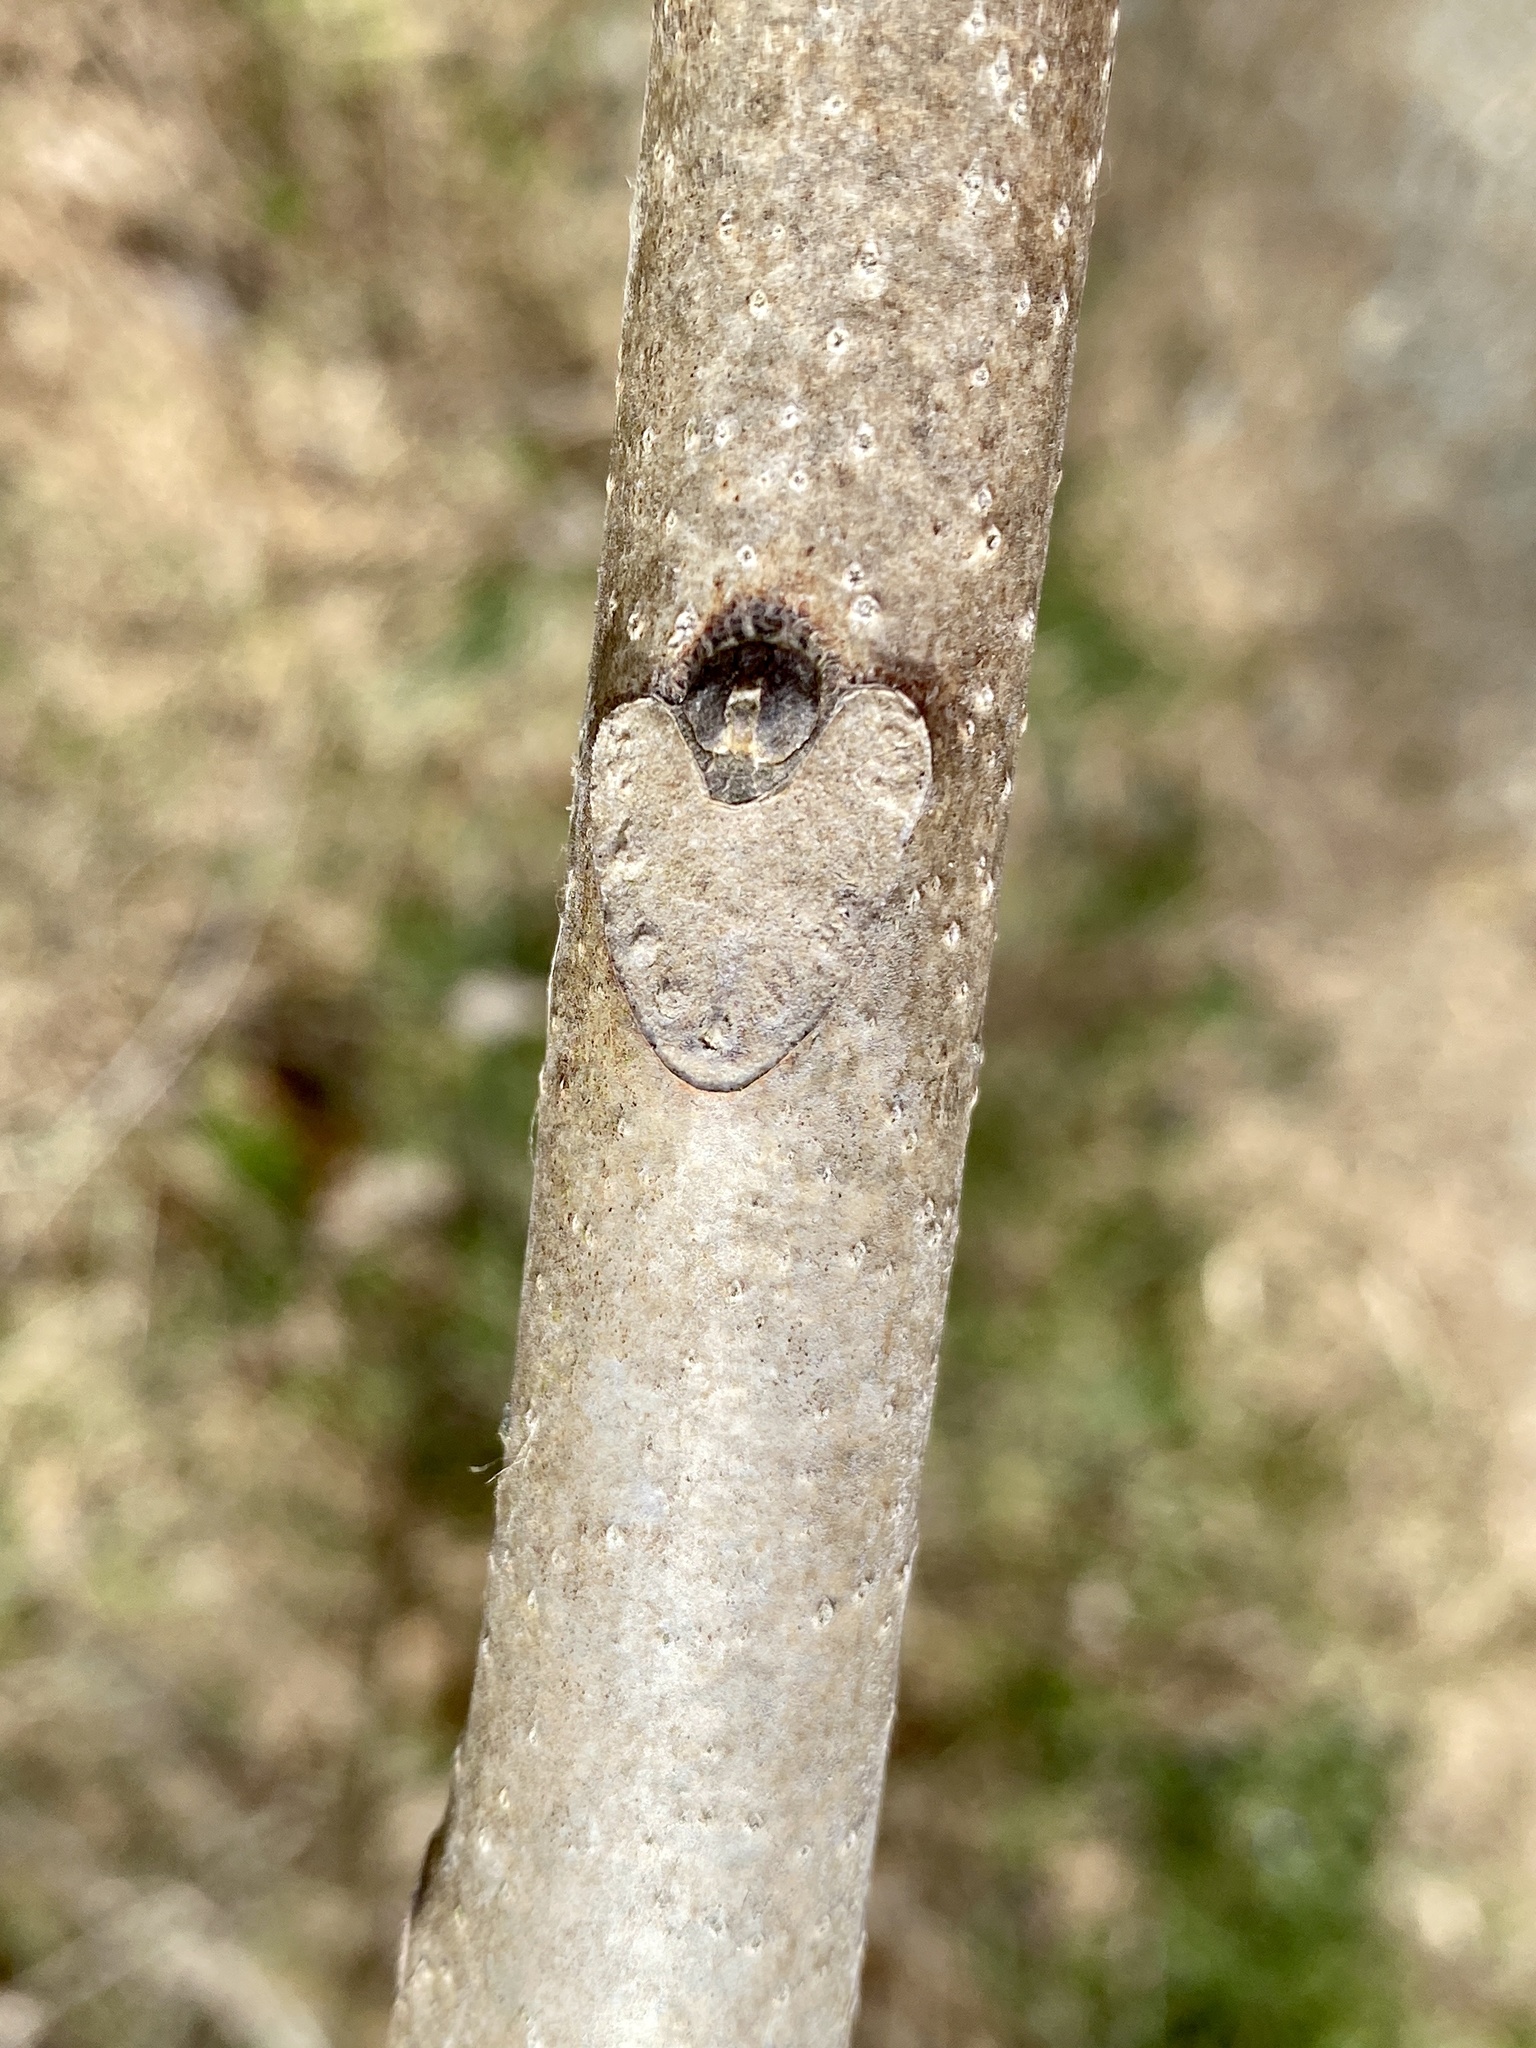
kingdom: Plantae
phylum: Tracheophyta
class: Magnoliopsida
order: Sapindales
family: Simaroubaceae
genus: Ailanthus
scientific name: Ailanthus altissima
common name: Tree-of-heaven
